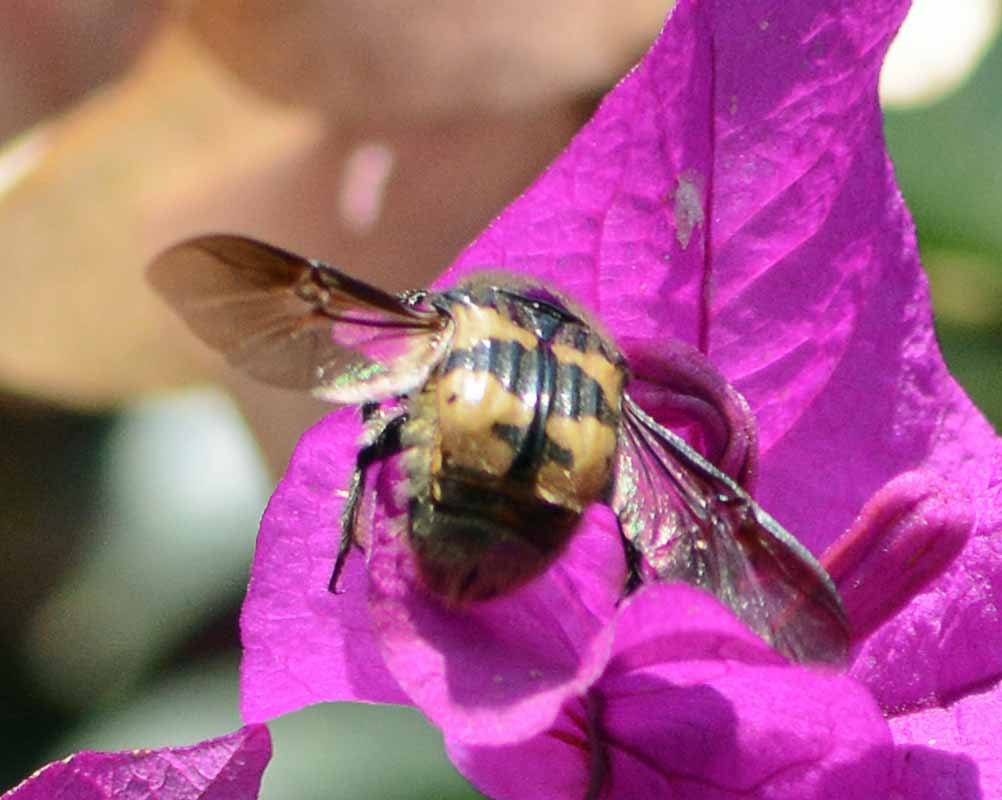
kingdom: Animalia
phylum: Arthropoda
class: Insecta
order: Coleoptera
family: Scarabaeidae
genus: Euphoria
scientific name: Euphoria basalis
